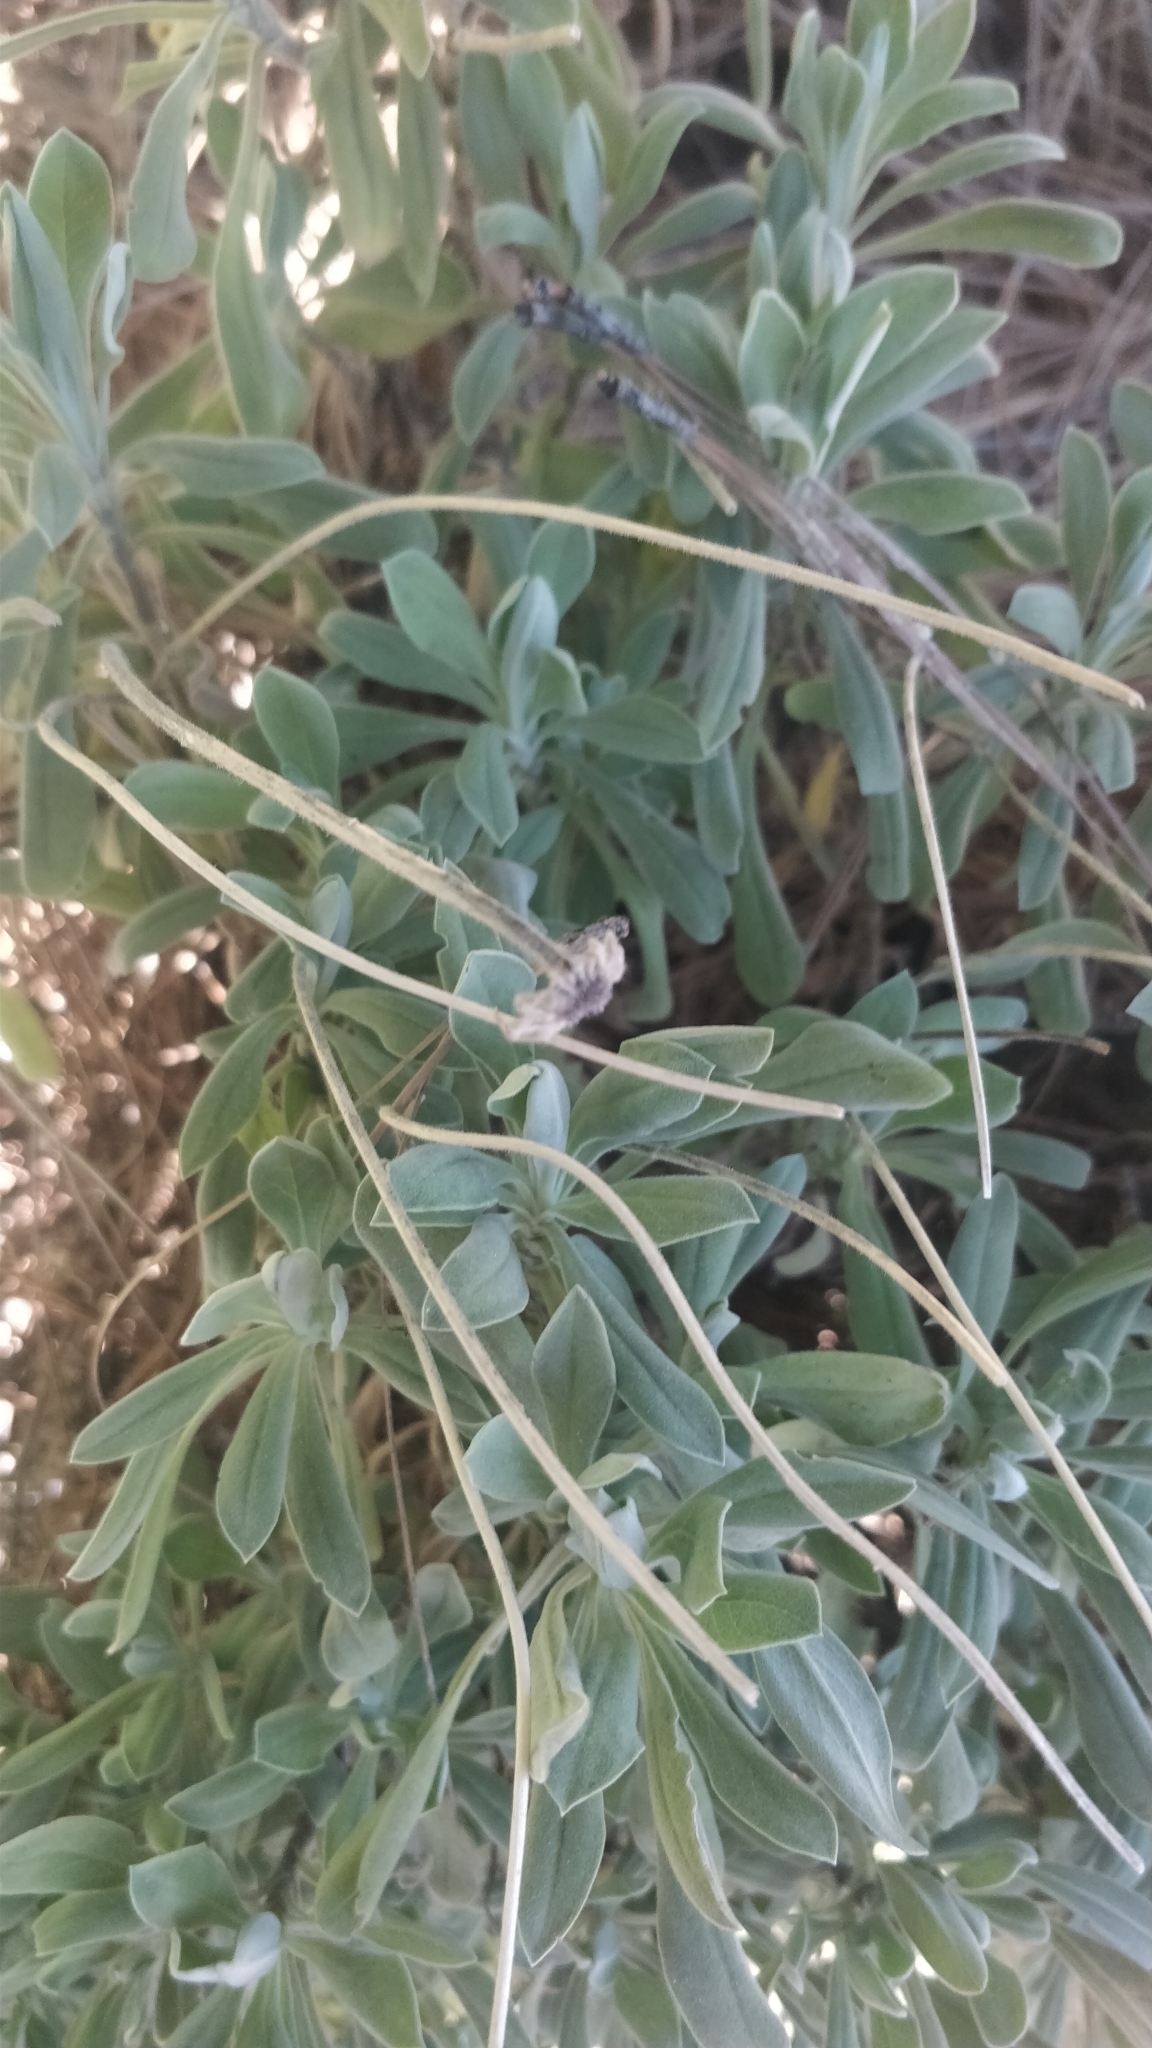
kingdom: Plantae
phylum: Tracheophyta
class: Magnoliopsida
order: Dipsacales
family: Caprifoliaceae
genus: Pterocephalus
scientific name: Pterocephalus porphyranthus
